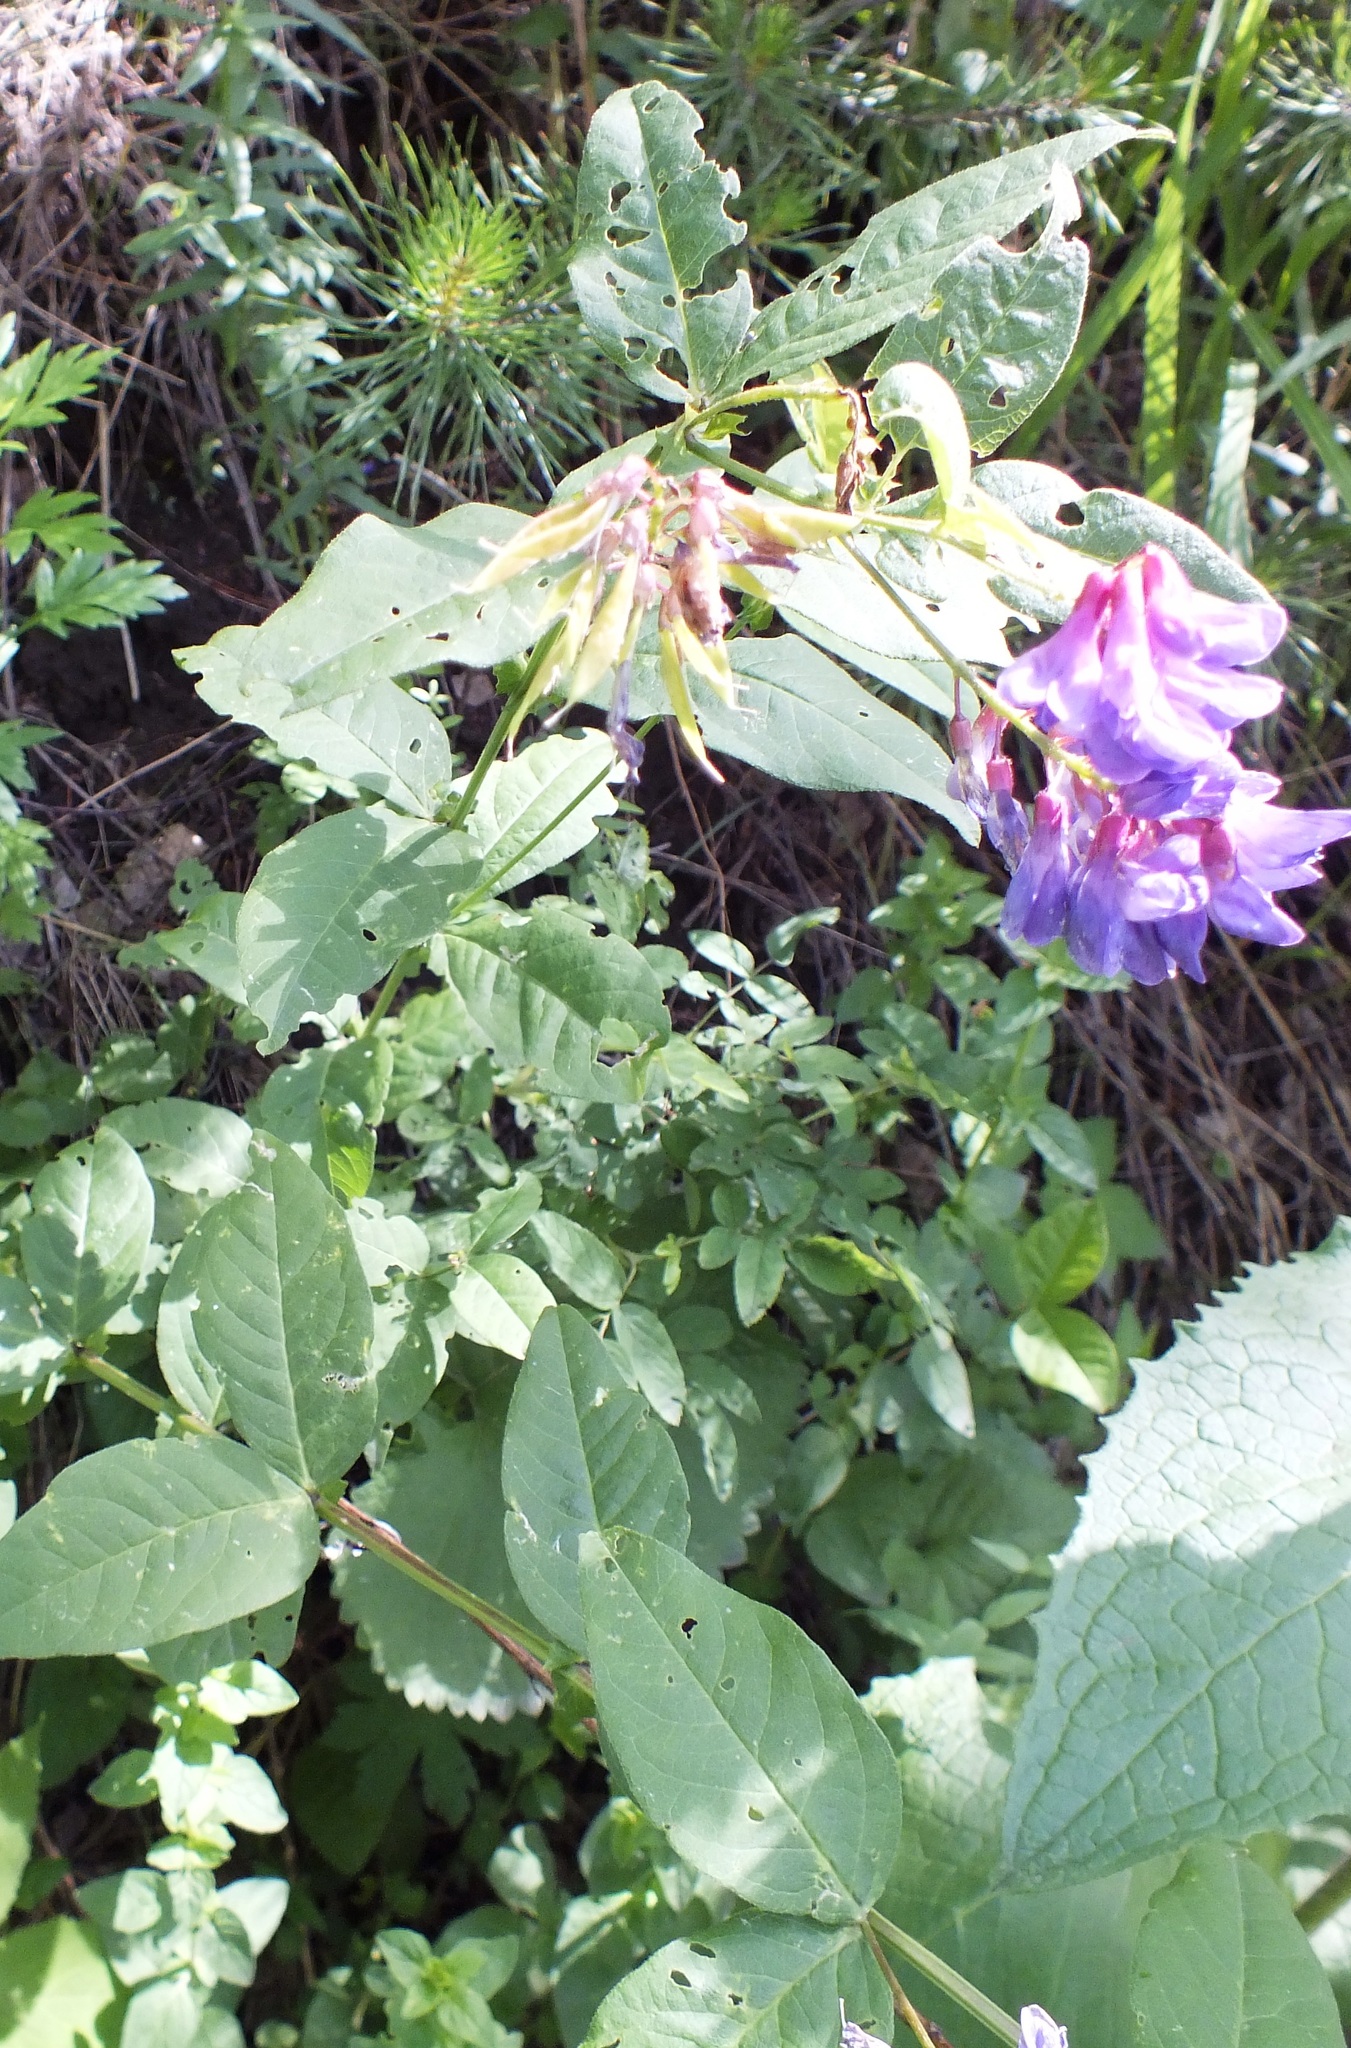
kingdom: Plantae
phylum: Tracheophyta
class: Magnoliopsida
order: Fabales
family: Fabaceae
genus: Vicia
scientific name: Vicia unijuga
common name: Two-leaf vetch
